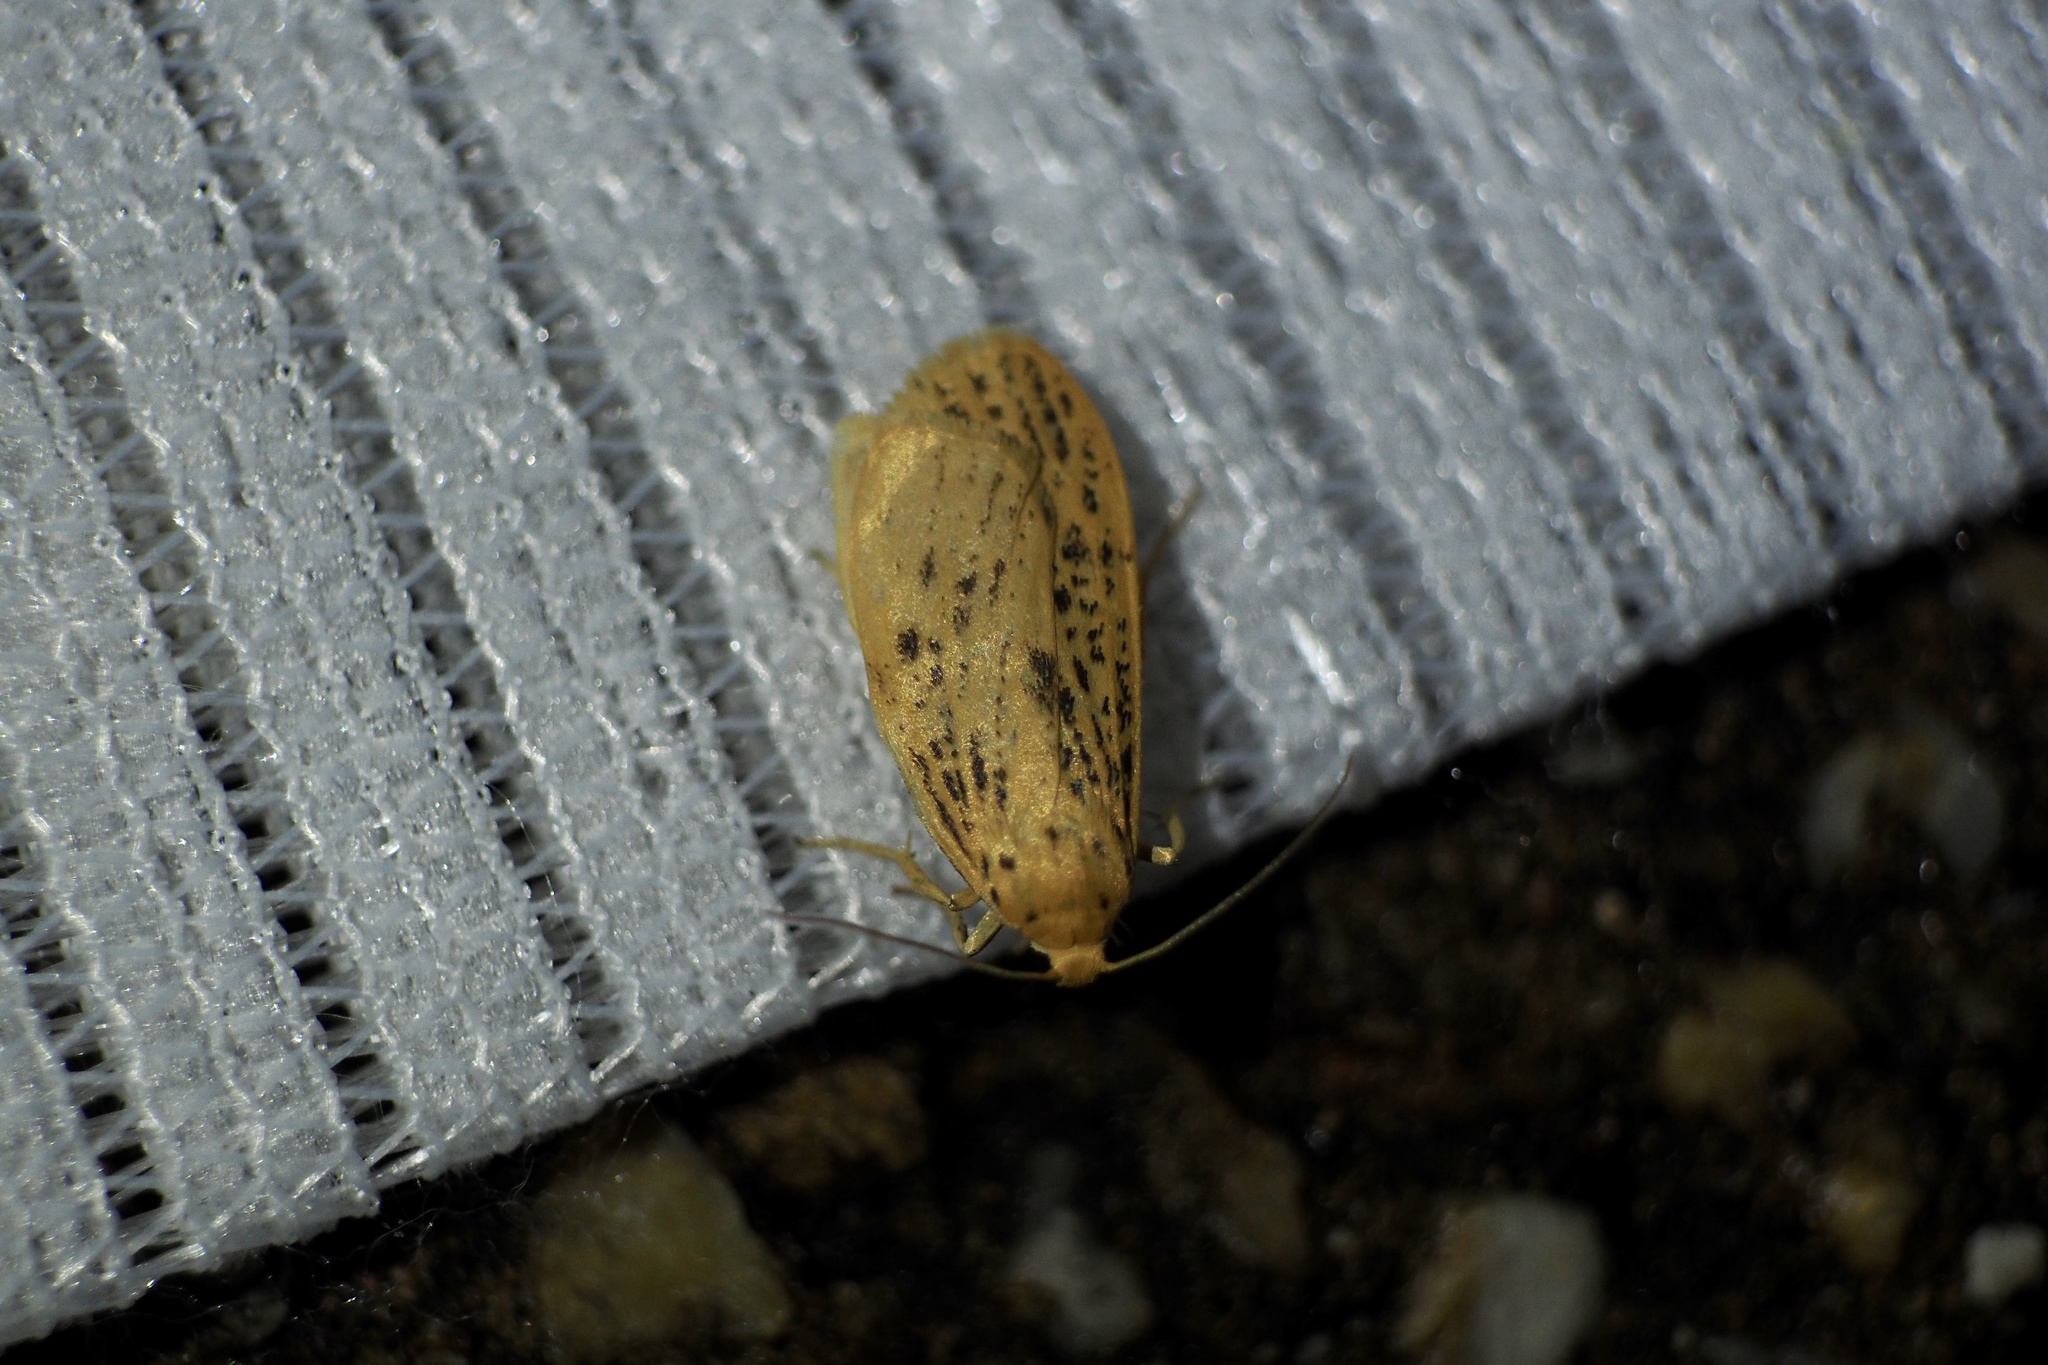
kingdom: Animalia
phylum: Arthropoda
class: Insecta
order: Lepidoptera
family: Erebidae
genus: Dolgoma
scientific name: Dolgoma cribrata
